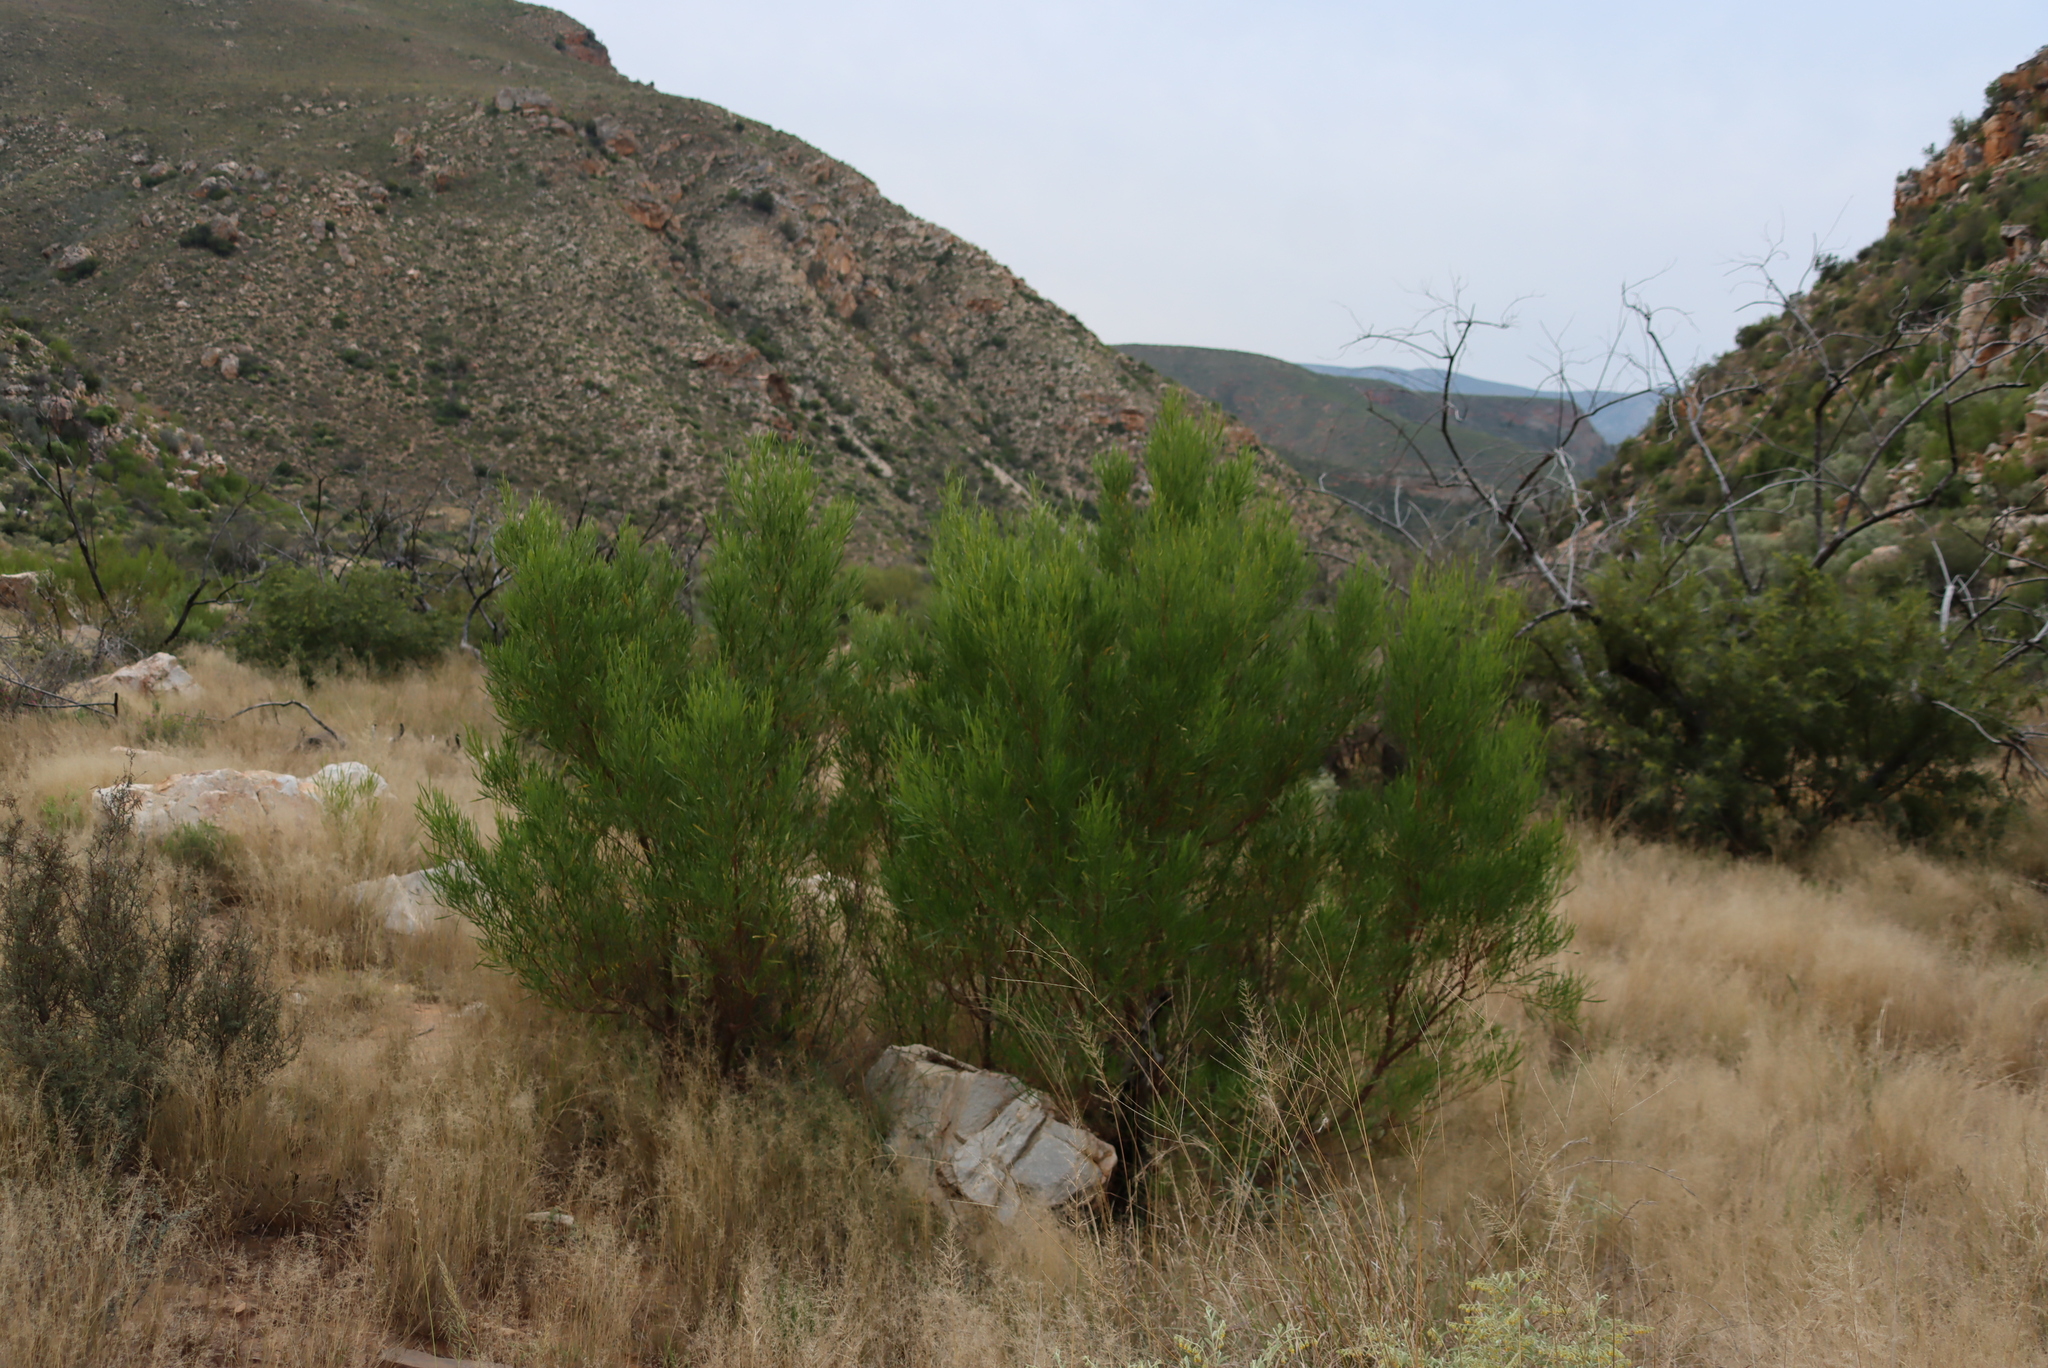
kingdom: Plantae
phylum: Tracheophyta
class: Magnoliopsida
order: Sapindales
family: Sapindaceae
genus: Dodonaea
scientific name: Dodonaea viscosa
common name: Hopbush
